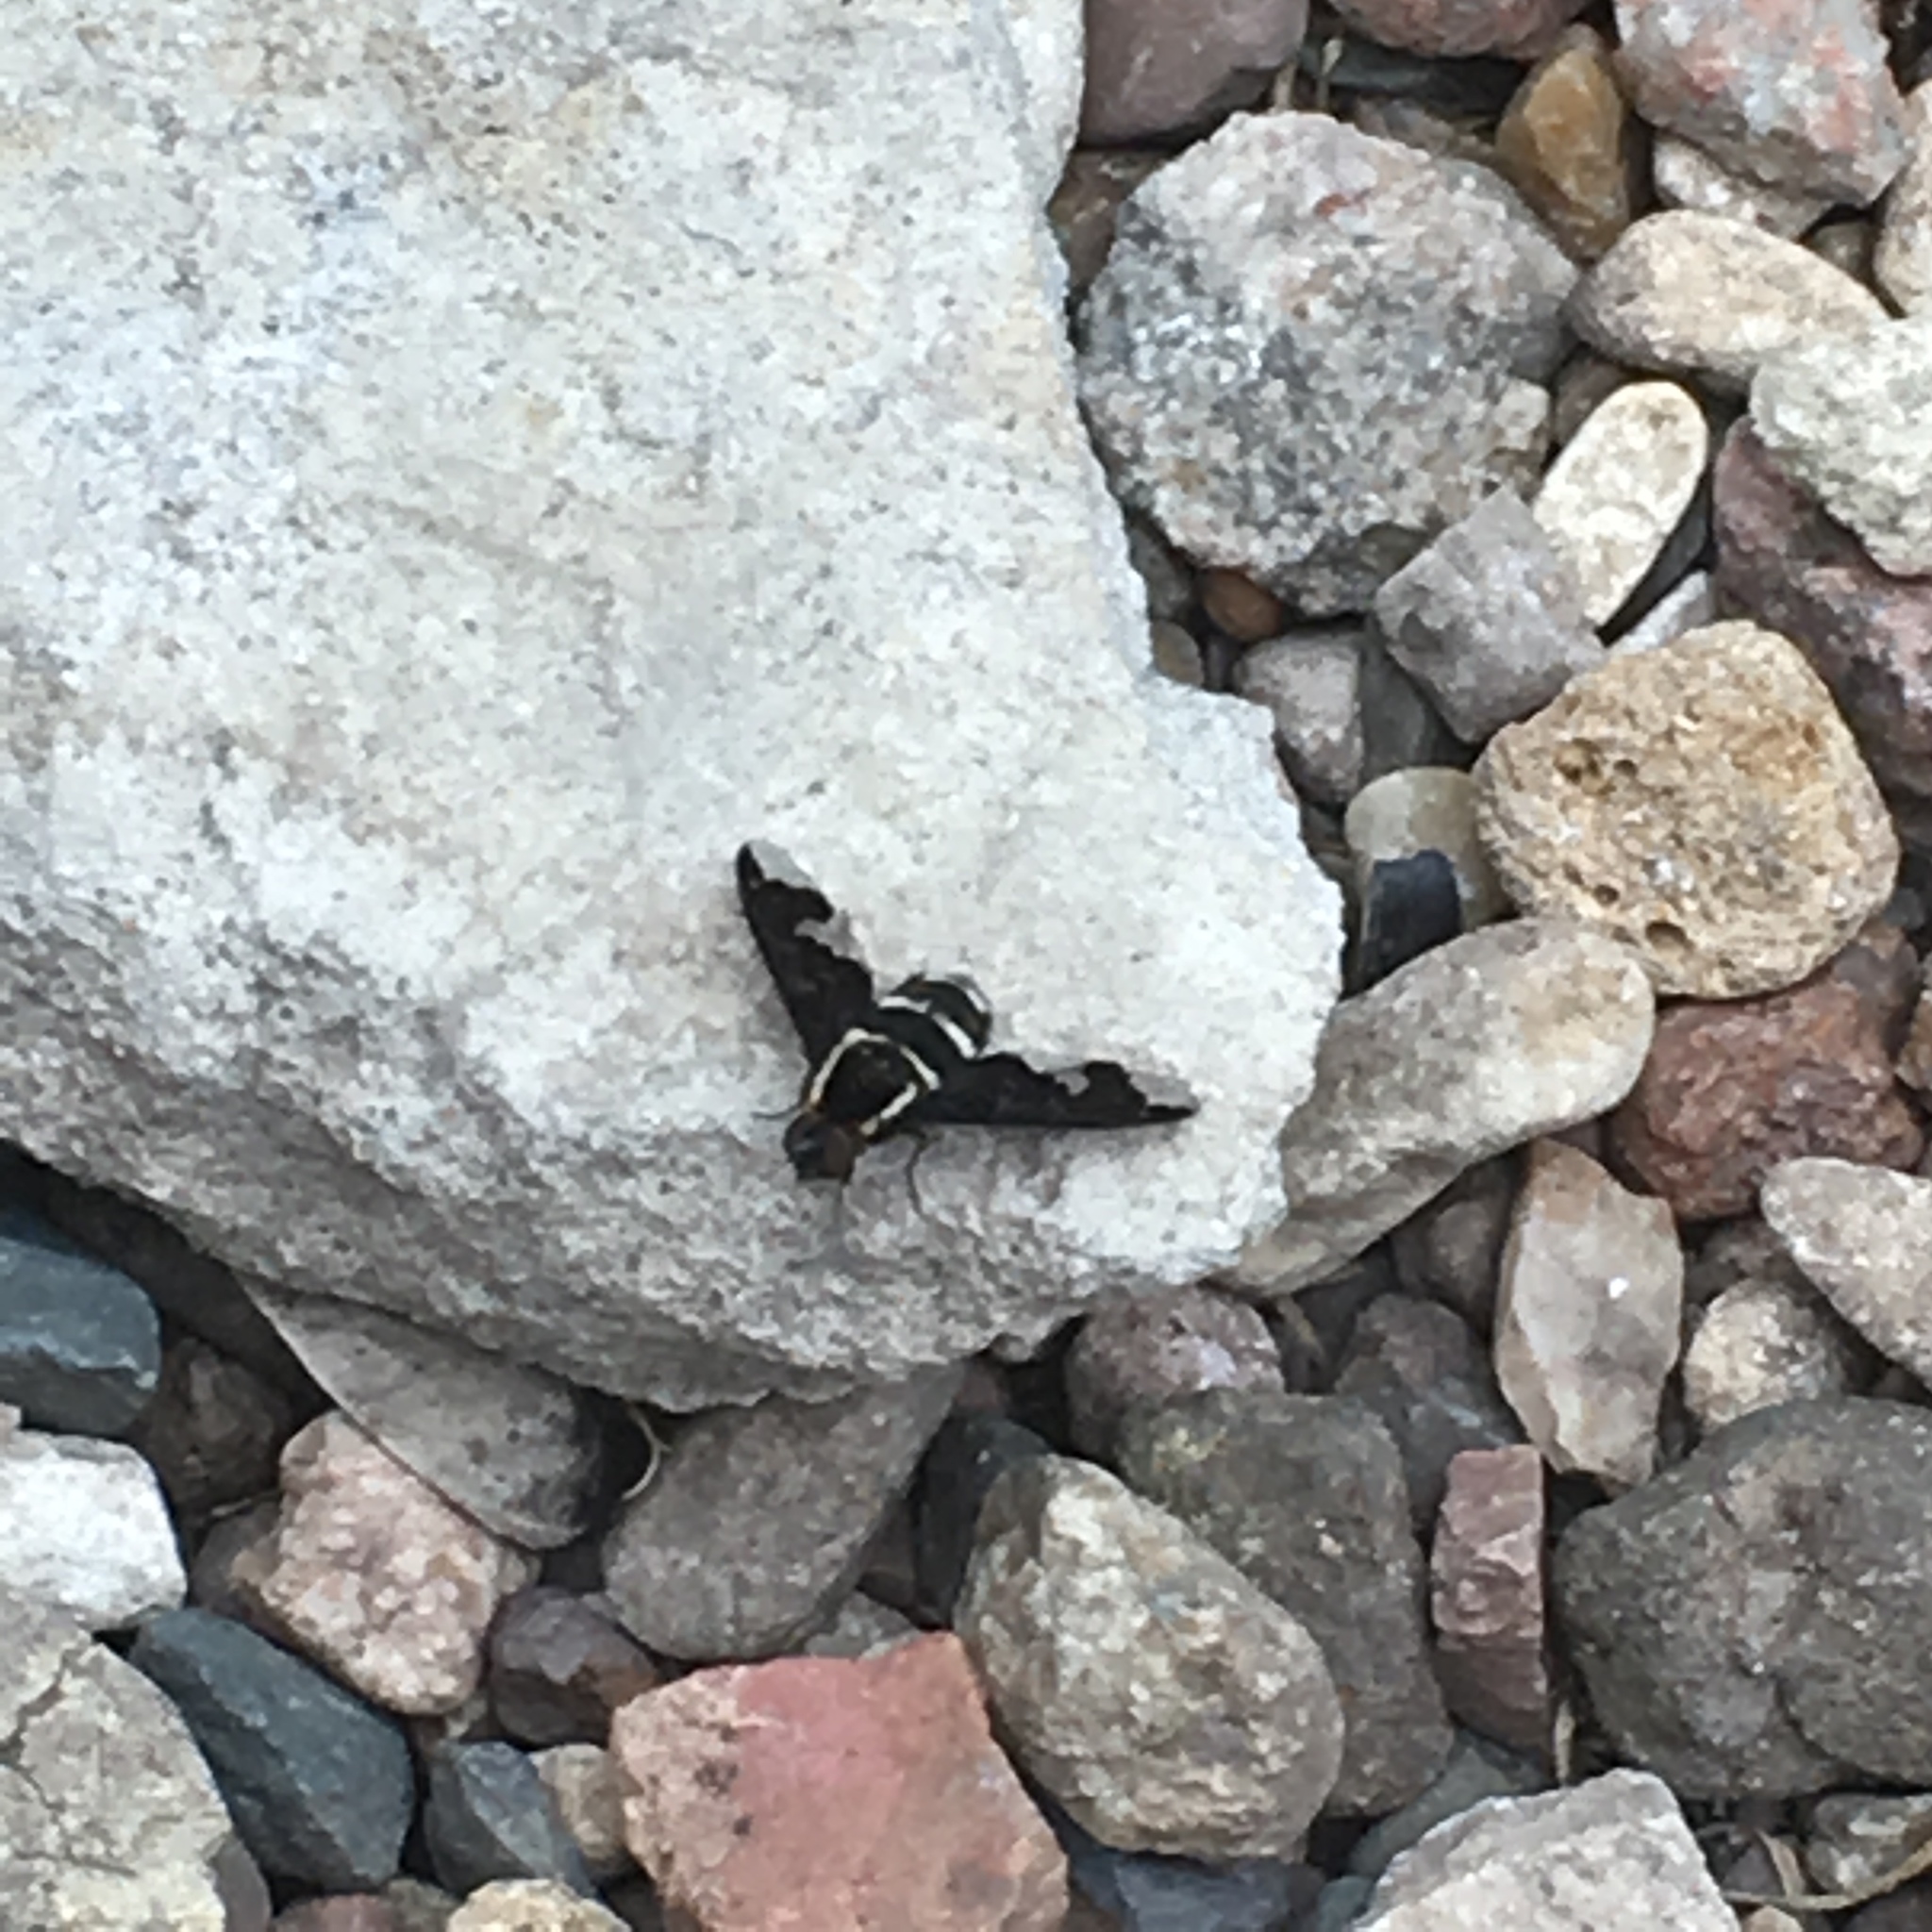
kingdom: Animalia
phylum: Arthropoda
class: Insecta
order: Diptera
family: Bombyliidae
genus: Hemipenthes
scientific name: Hemipenthes maura
